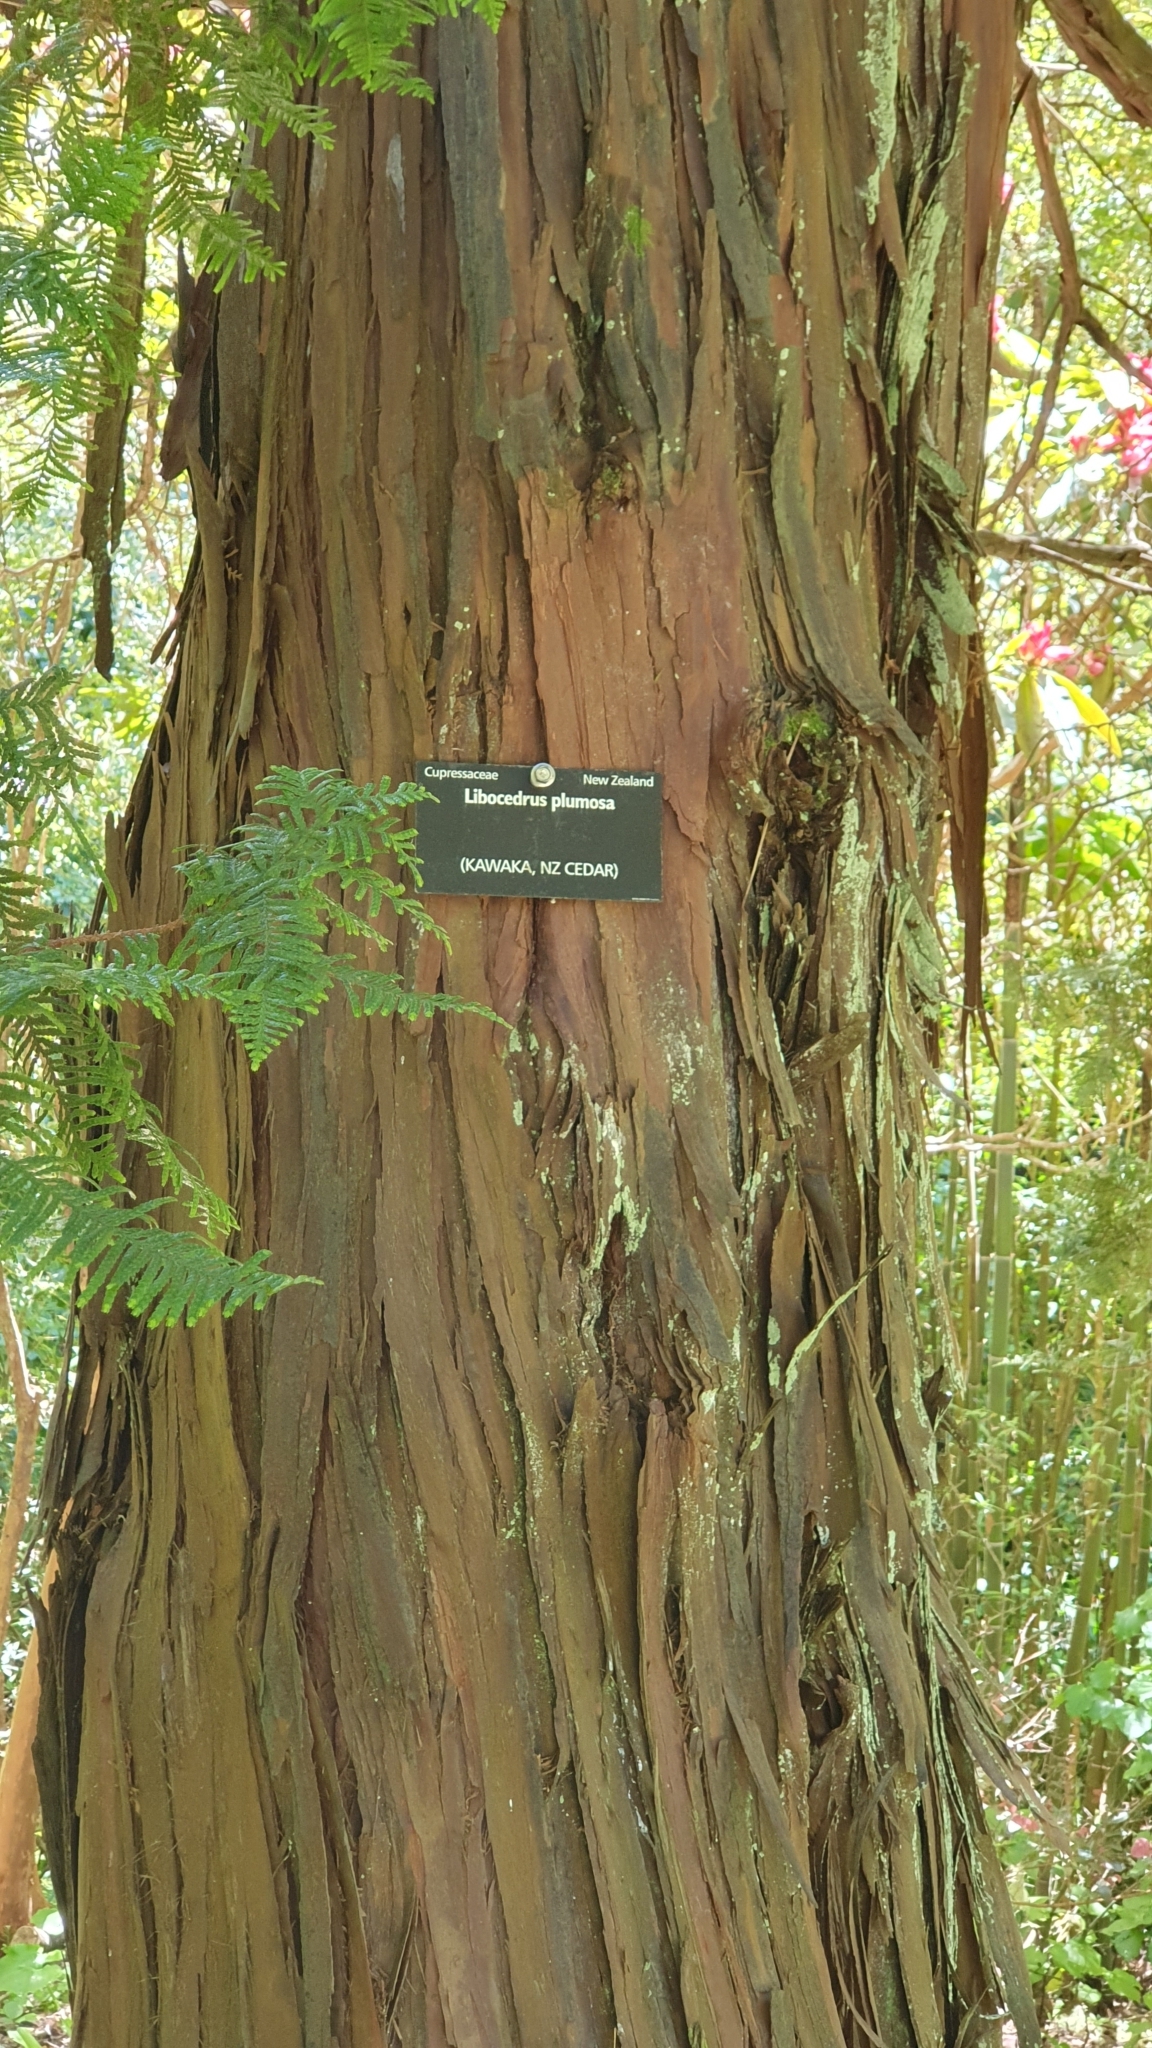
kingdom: Plantae
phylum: Tracheophyta
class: Pinopsida
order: Pinales
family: Cupressaceae
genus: Libocedrus
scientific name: Libocedrus plumosa
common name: New zealand cedar
